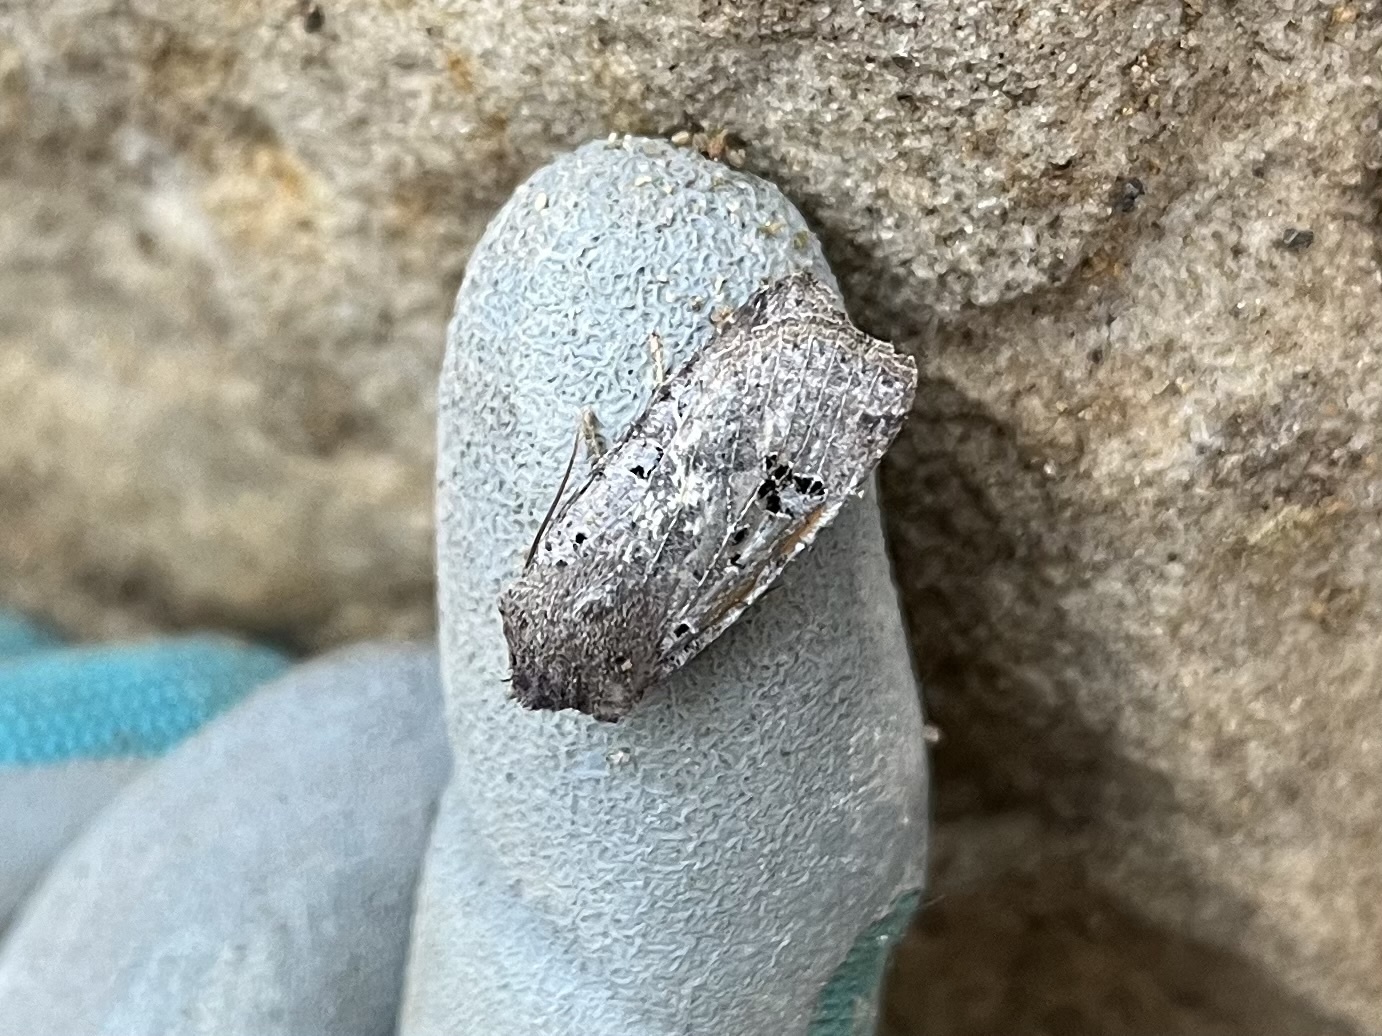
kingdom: Animalia
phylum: Arthropoda
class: Insecta
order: Lepidoptera
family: Noctuidae
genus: Conistra
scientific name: Conistra rubiginosa
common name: Black-spotted chestnut
